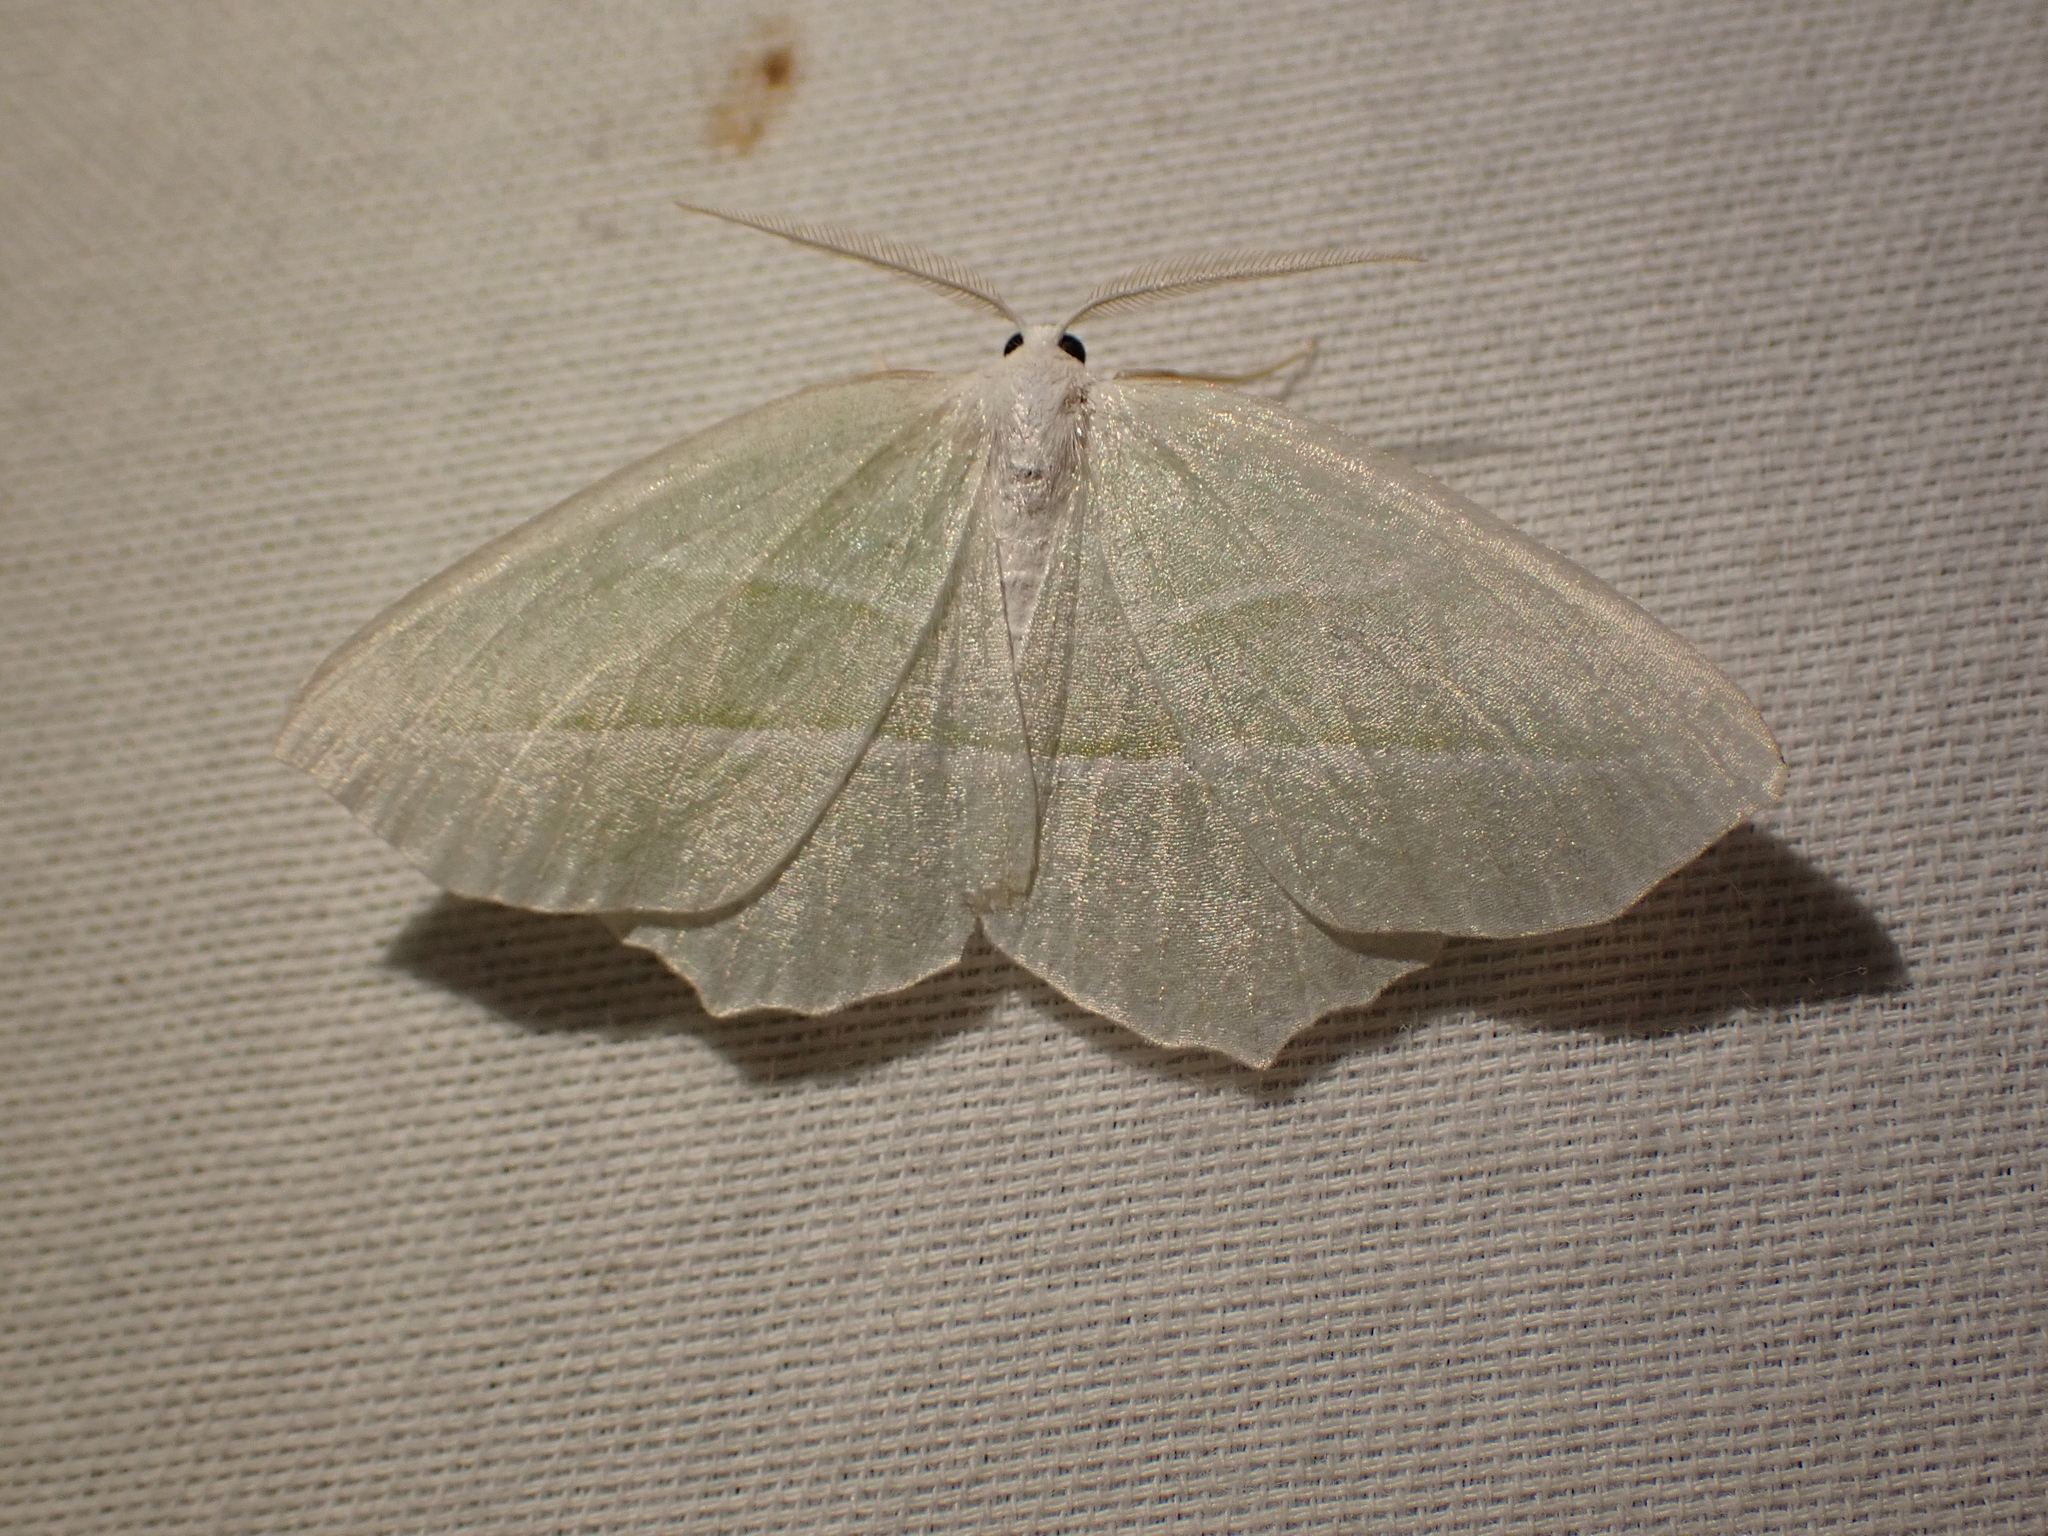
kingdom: Animalia
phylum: Arthropoda
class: Insecta
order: Lepidoptera
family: Geometridae
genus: Campaea
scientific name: Campaea perlata
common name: Fringed looper
